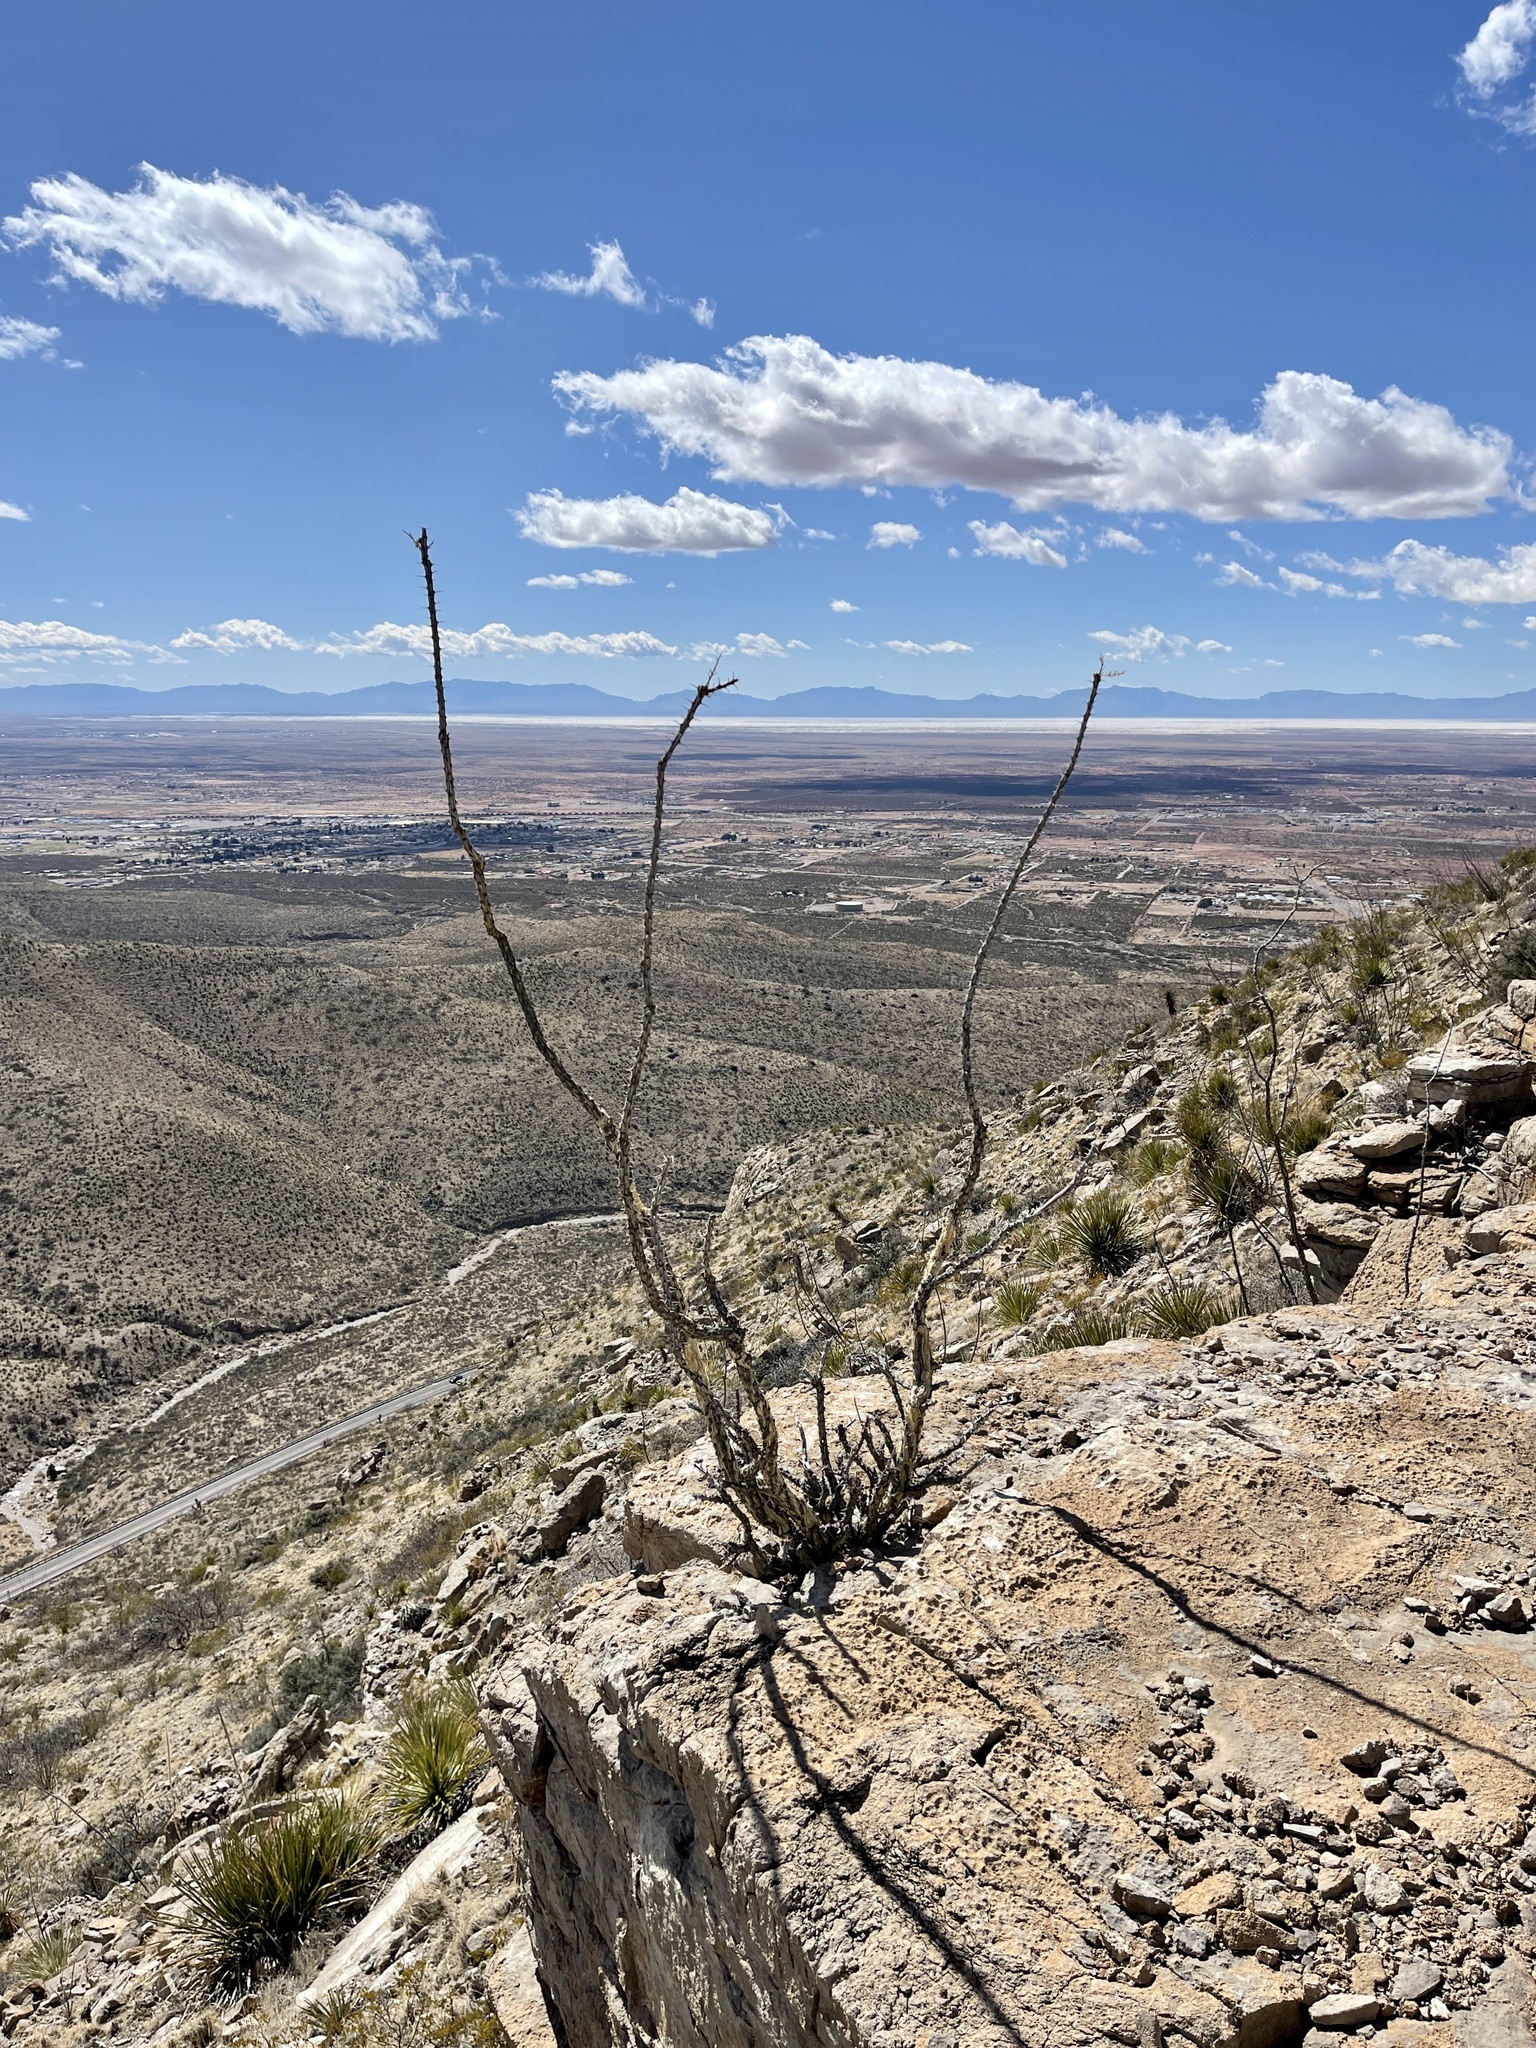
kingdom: Plantae
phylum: Tracheophyta
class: Magnoliopsida
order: Ericales
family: Fouquieriaceae
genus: Fouquieria
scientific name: Fouquieria splendens
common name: Vine-cactus
